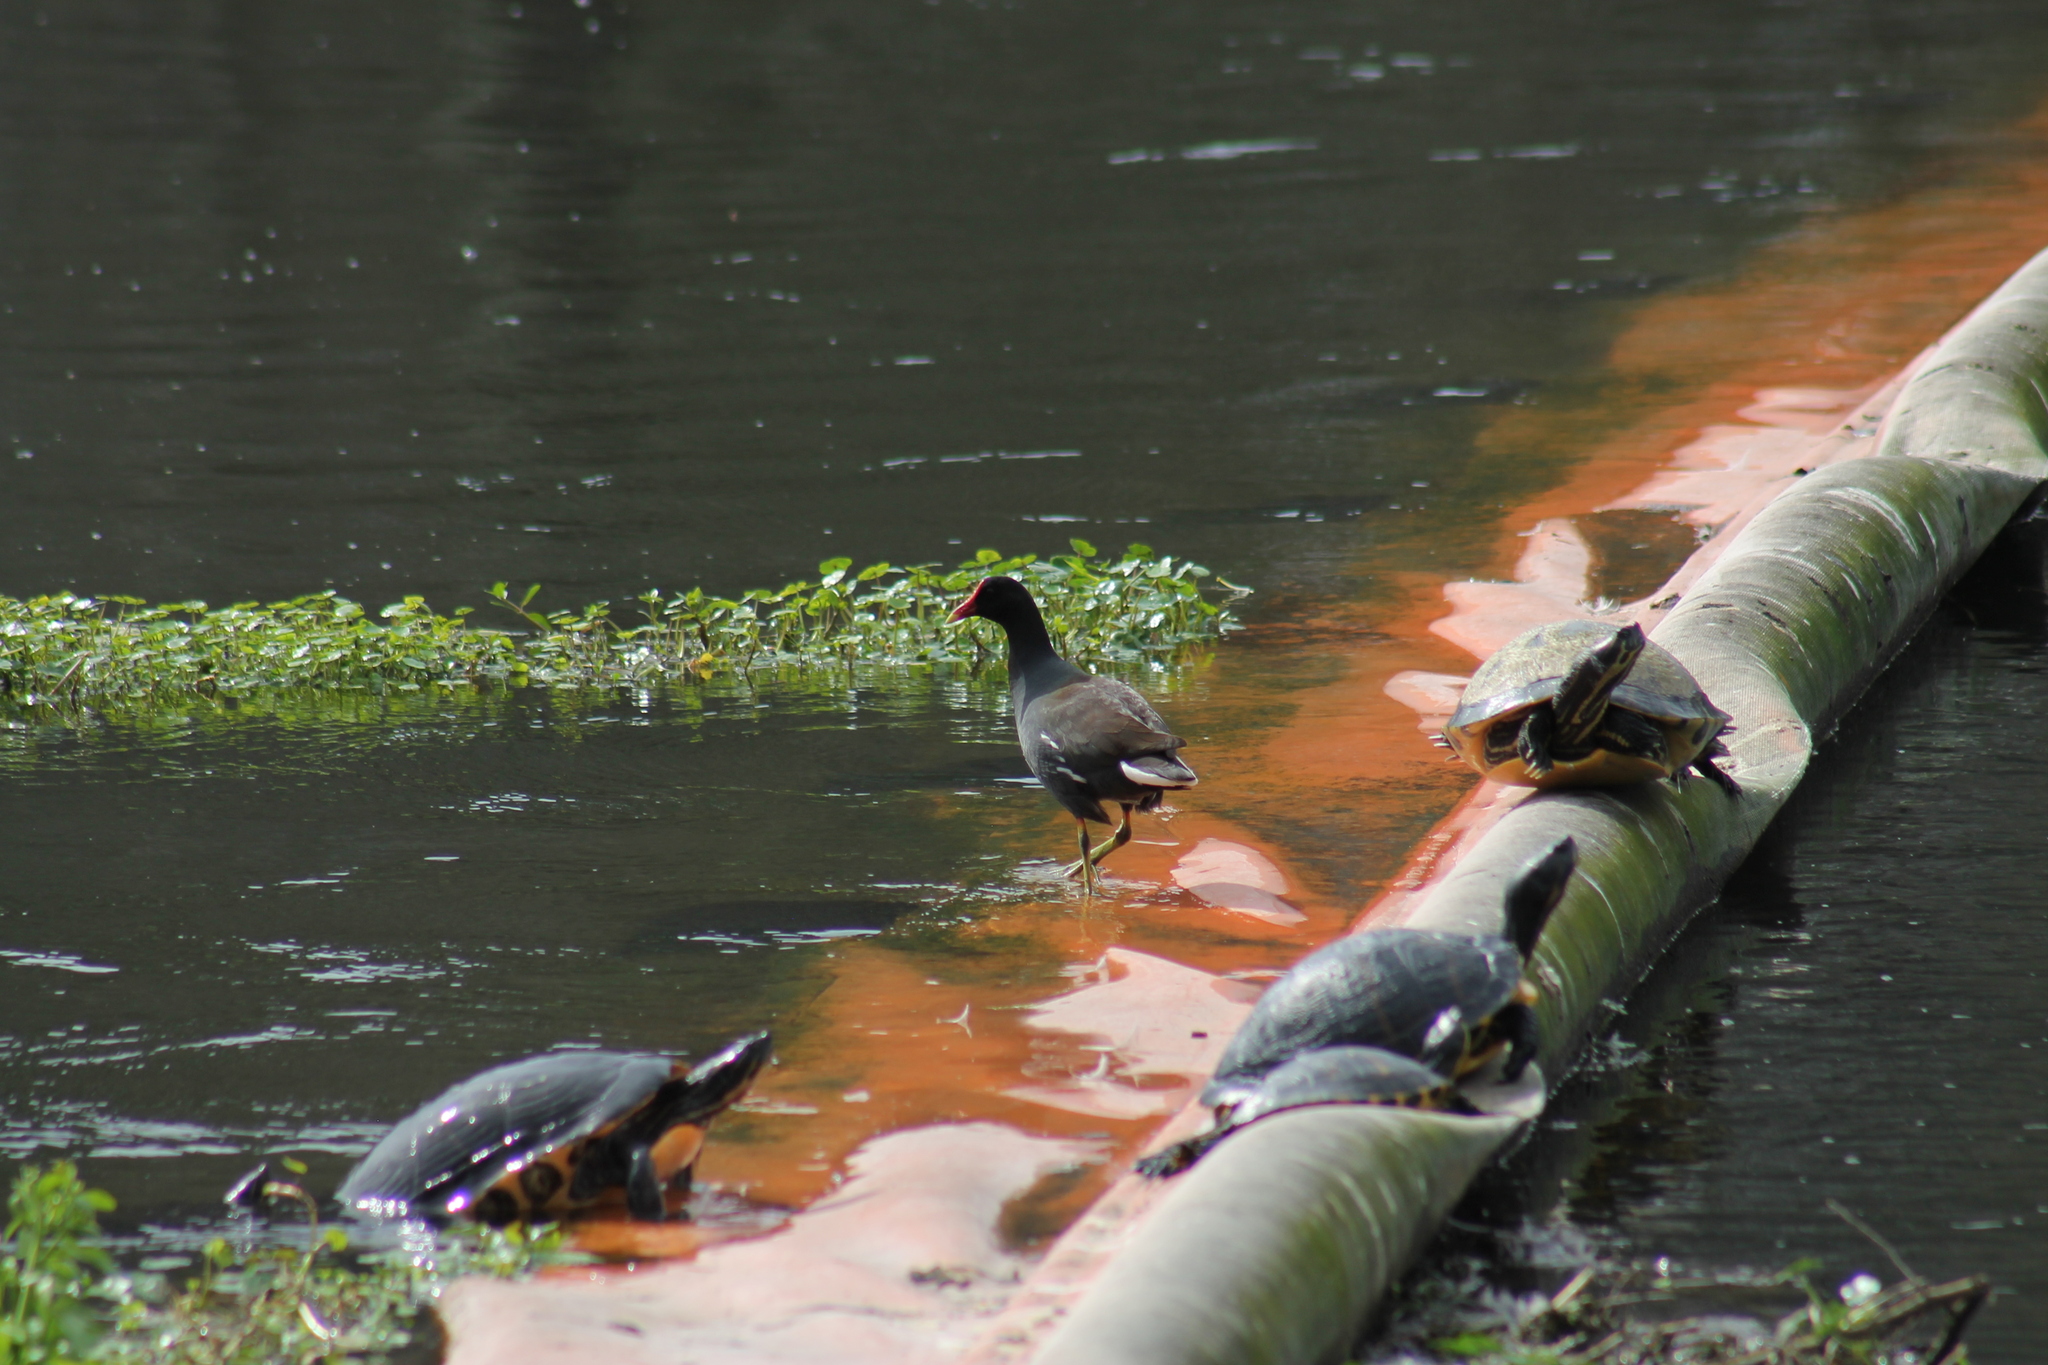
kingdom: Animalia
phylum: Chordata
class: Aves
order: Gruiformes
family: Rallidae
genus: Gallinula
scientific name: Gallinula chloropus
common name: Common moorhen
